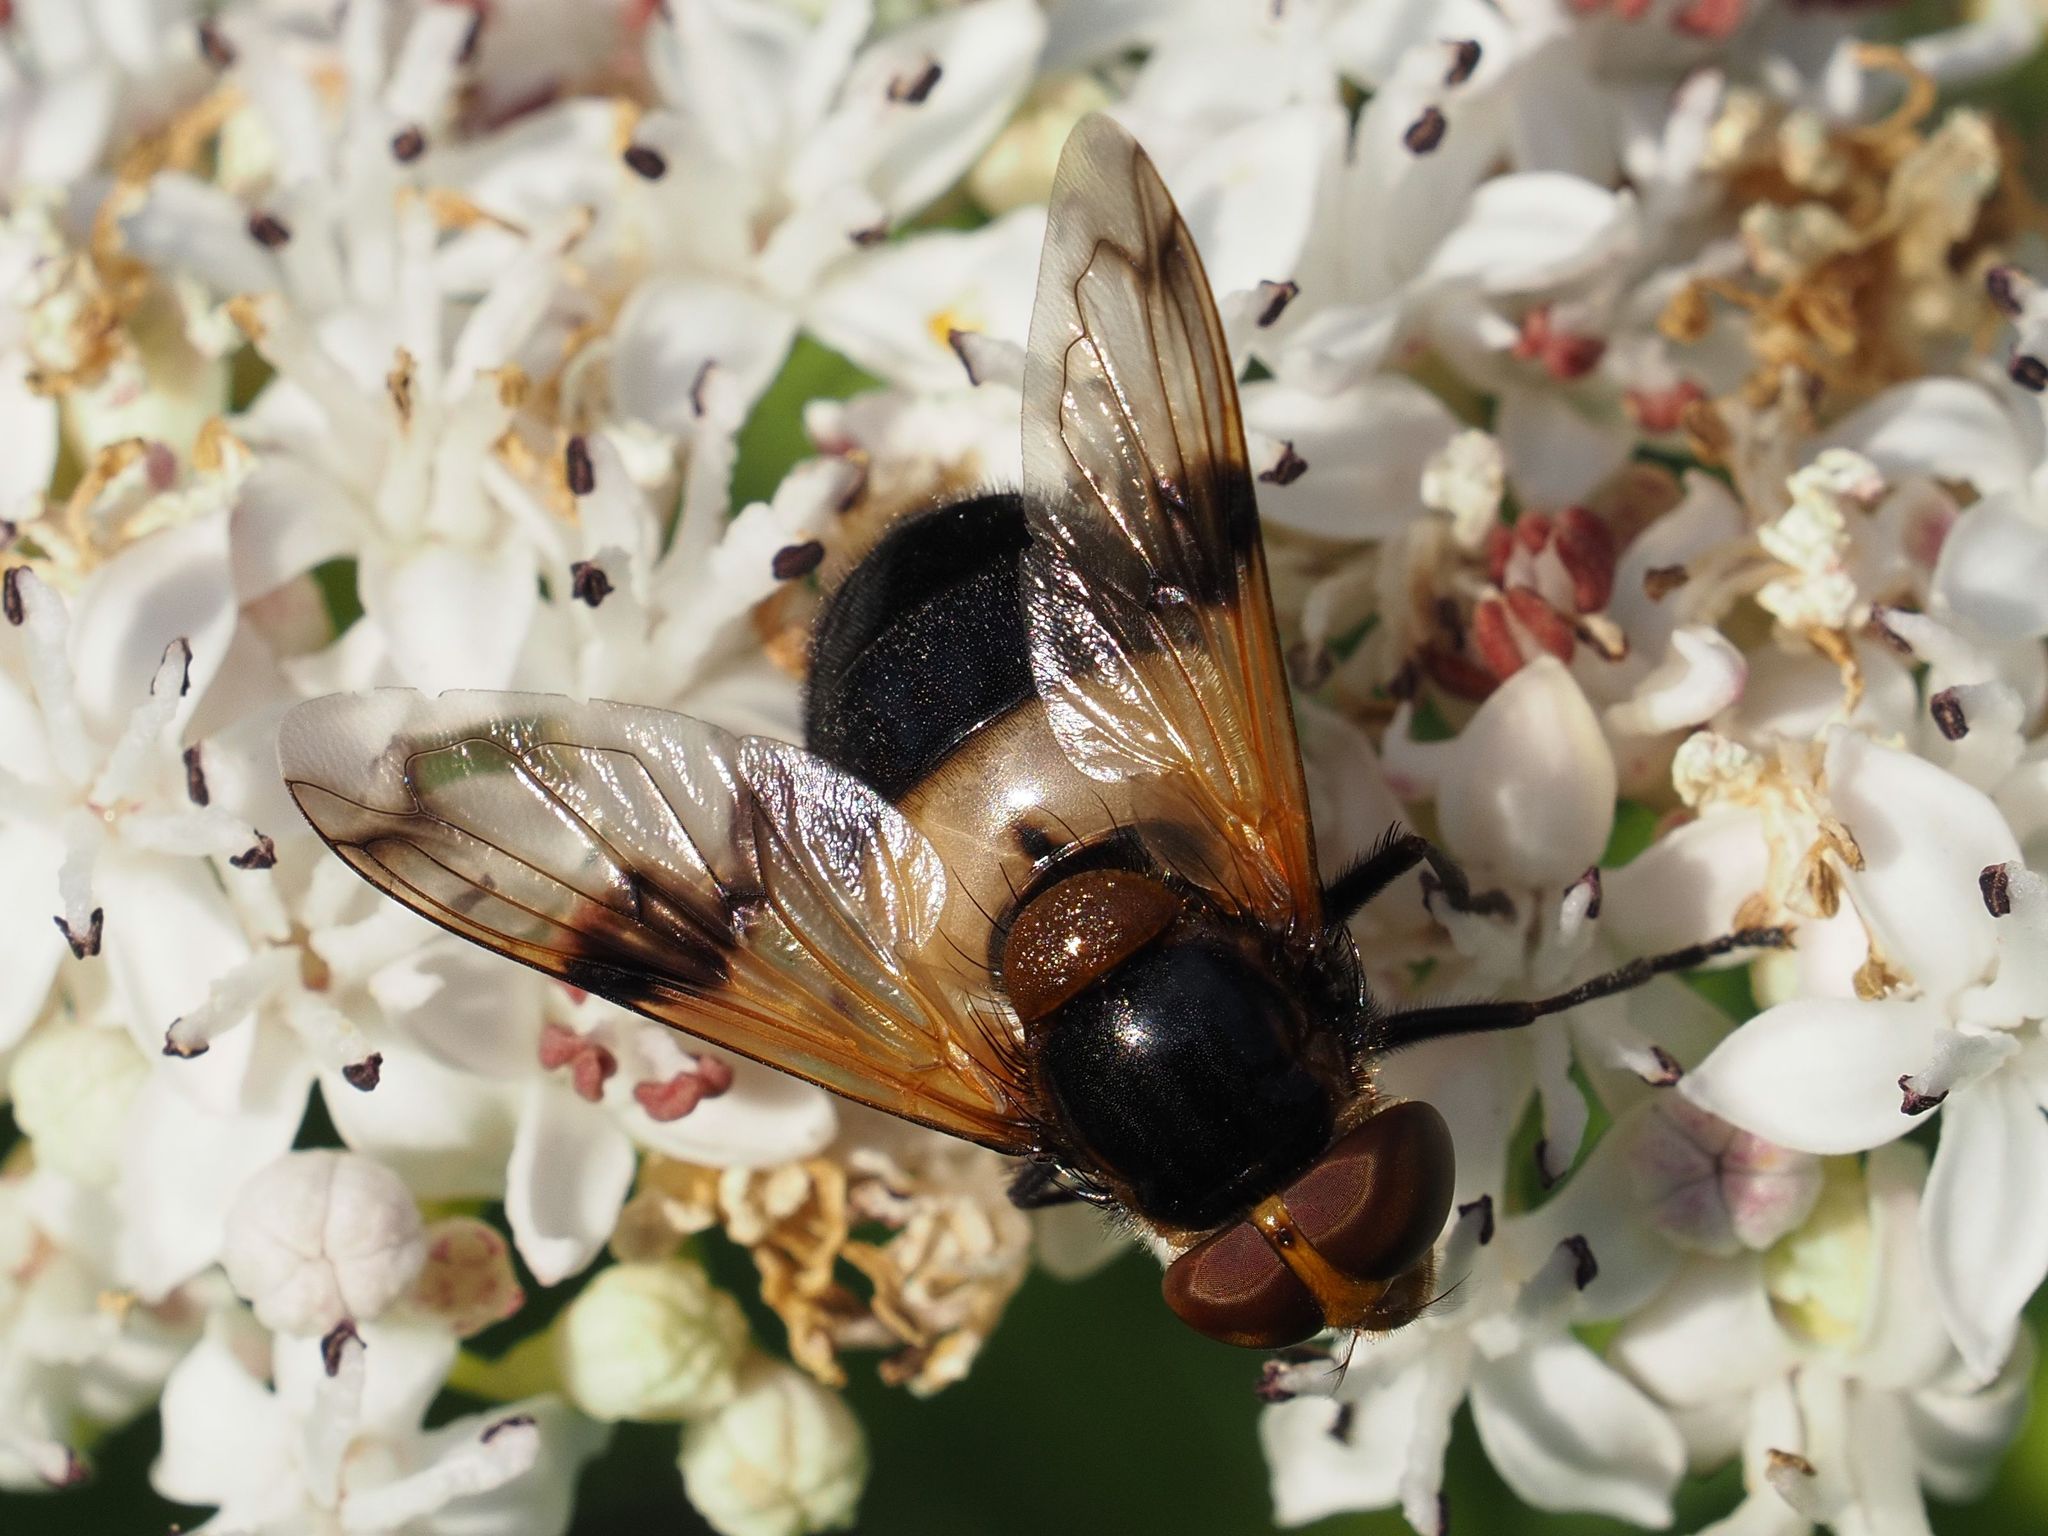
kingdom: Animalia
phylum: Arthropoda
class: Insecta
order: Diptera
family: Syrphidae
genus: Volucella
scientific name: Volucella pellucens
